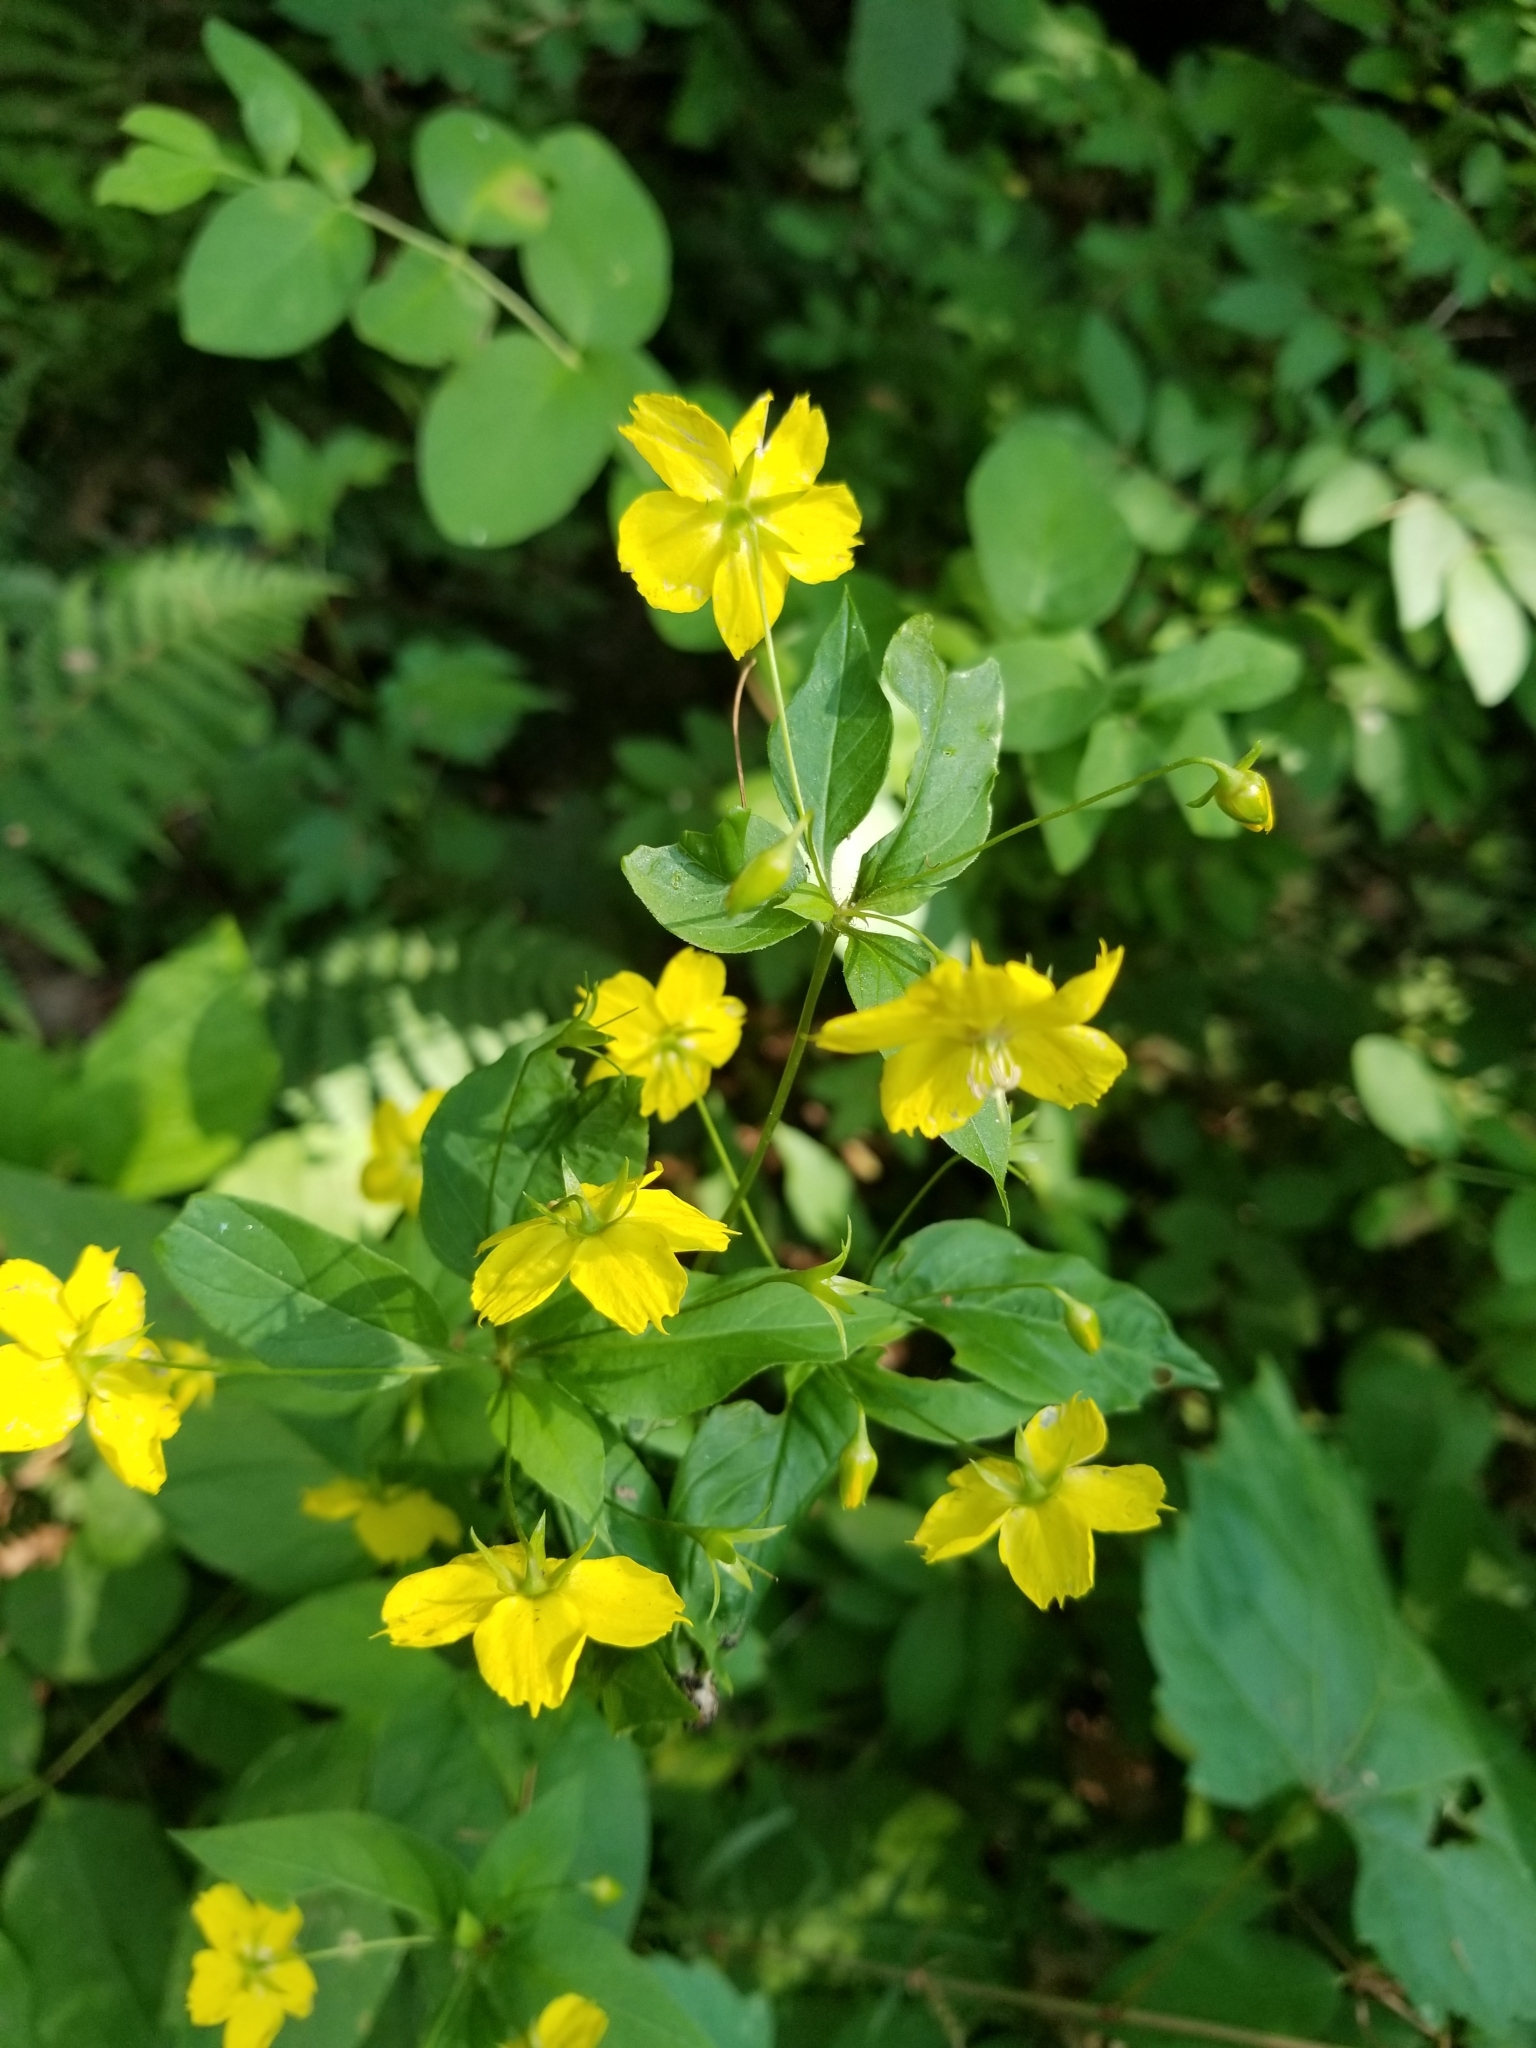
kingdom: Plantae
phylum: Tracheophyta
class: Magnoliopsida
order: Ericales
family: Primulaceae
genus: Lysimachia
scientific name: Lysimachia ciliata
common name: Fringed loosestrife
